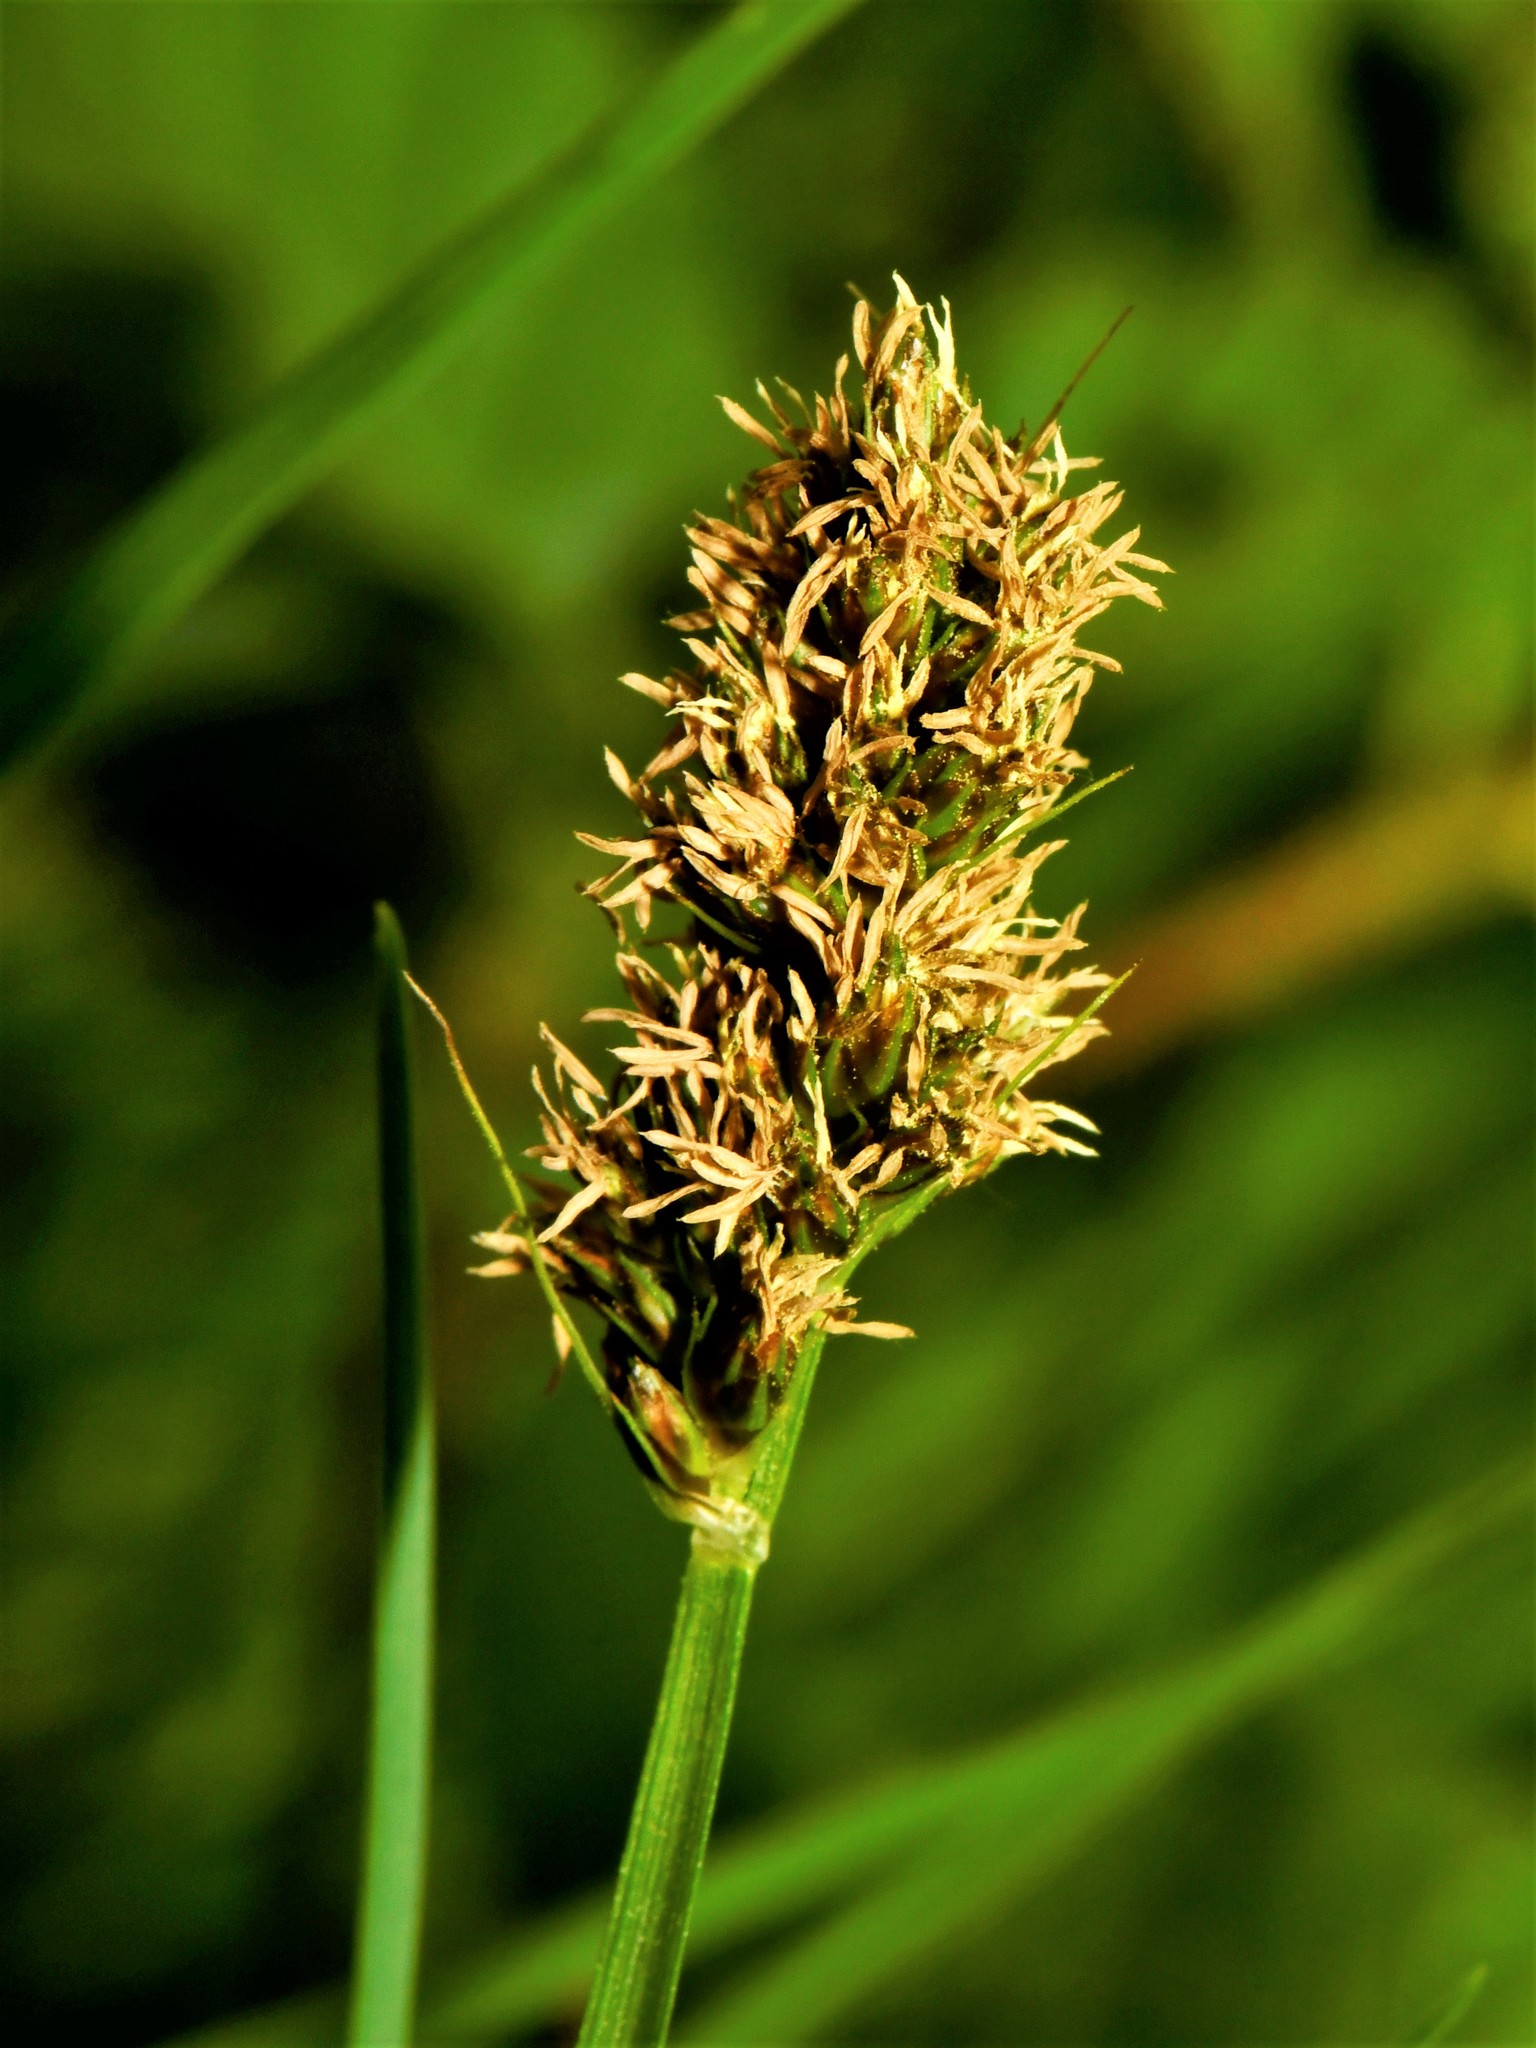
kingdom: Plantae
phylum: Tracheophyta
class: Liliopsida
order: Poales
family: Cyperaceae
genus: Carex
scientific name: Carex otrubae
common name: False fox-sedge
